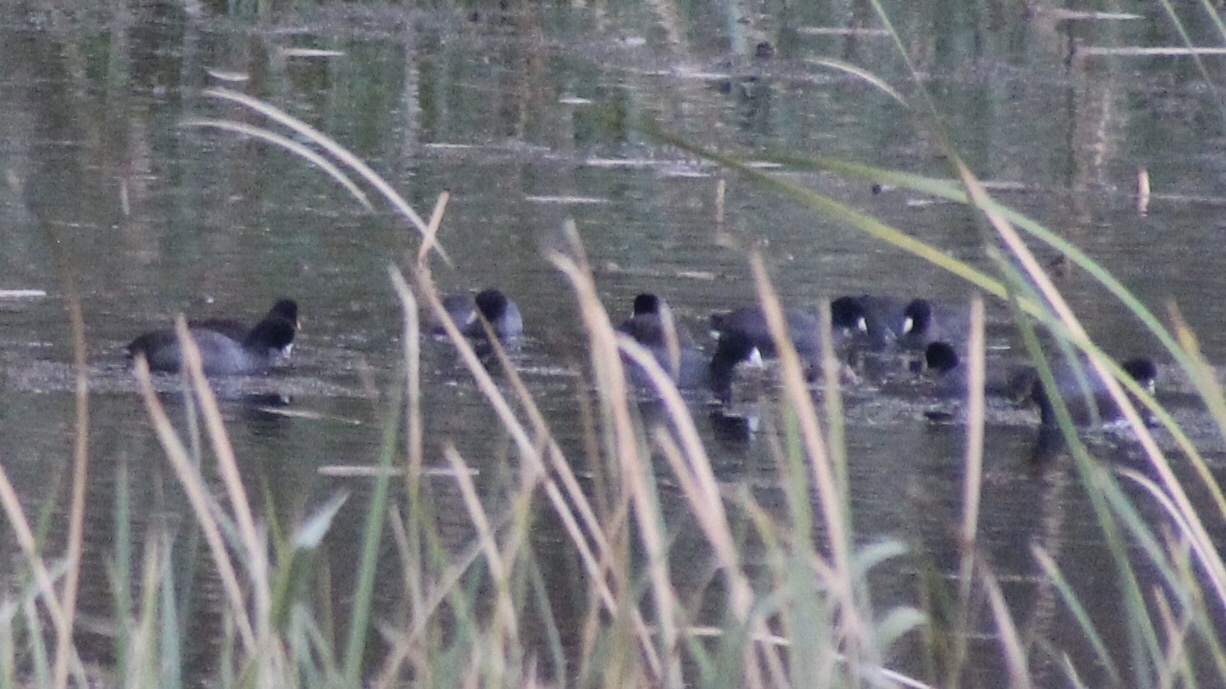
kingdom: Animalia
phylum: Chordata
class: Aves
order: Gruiformes
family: Rallidae
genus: Fulica
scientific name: Fulica americana
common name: American coot
